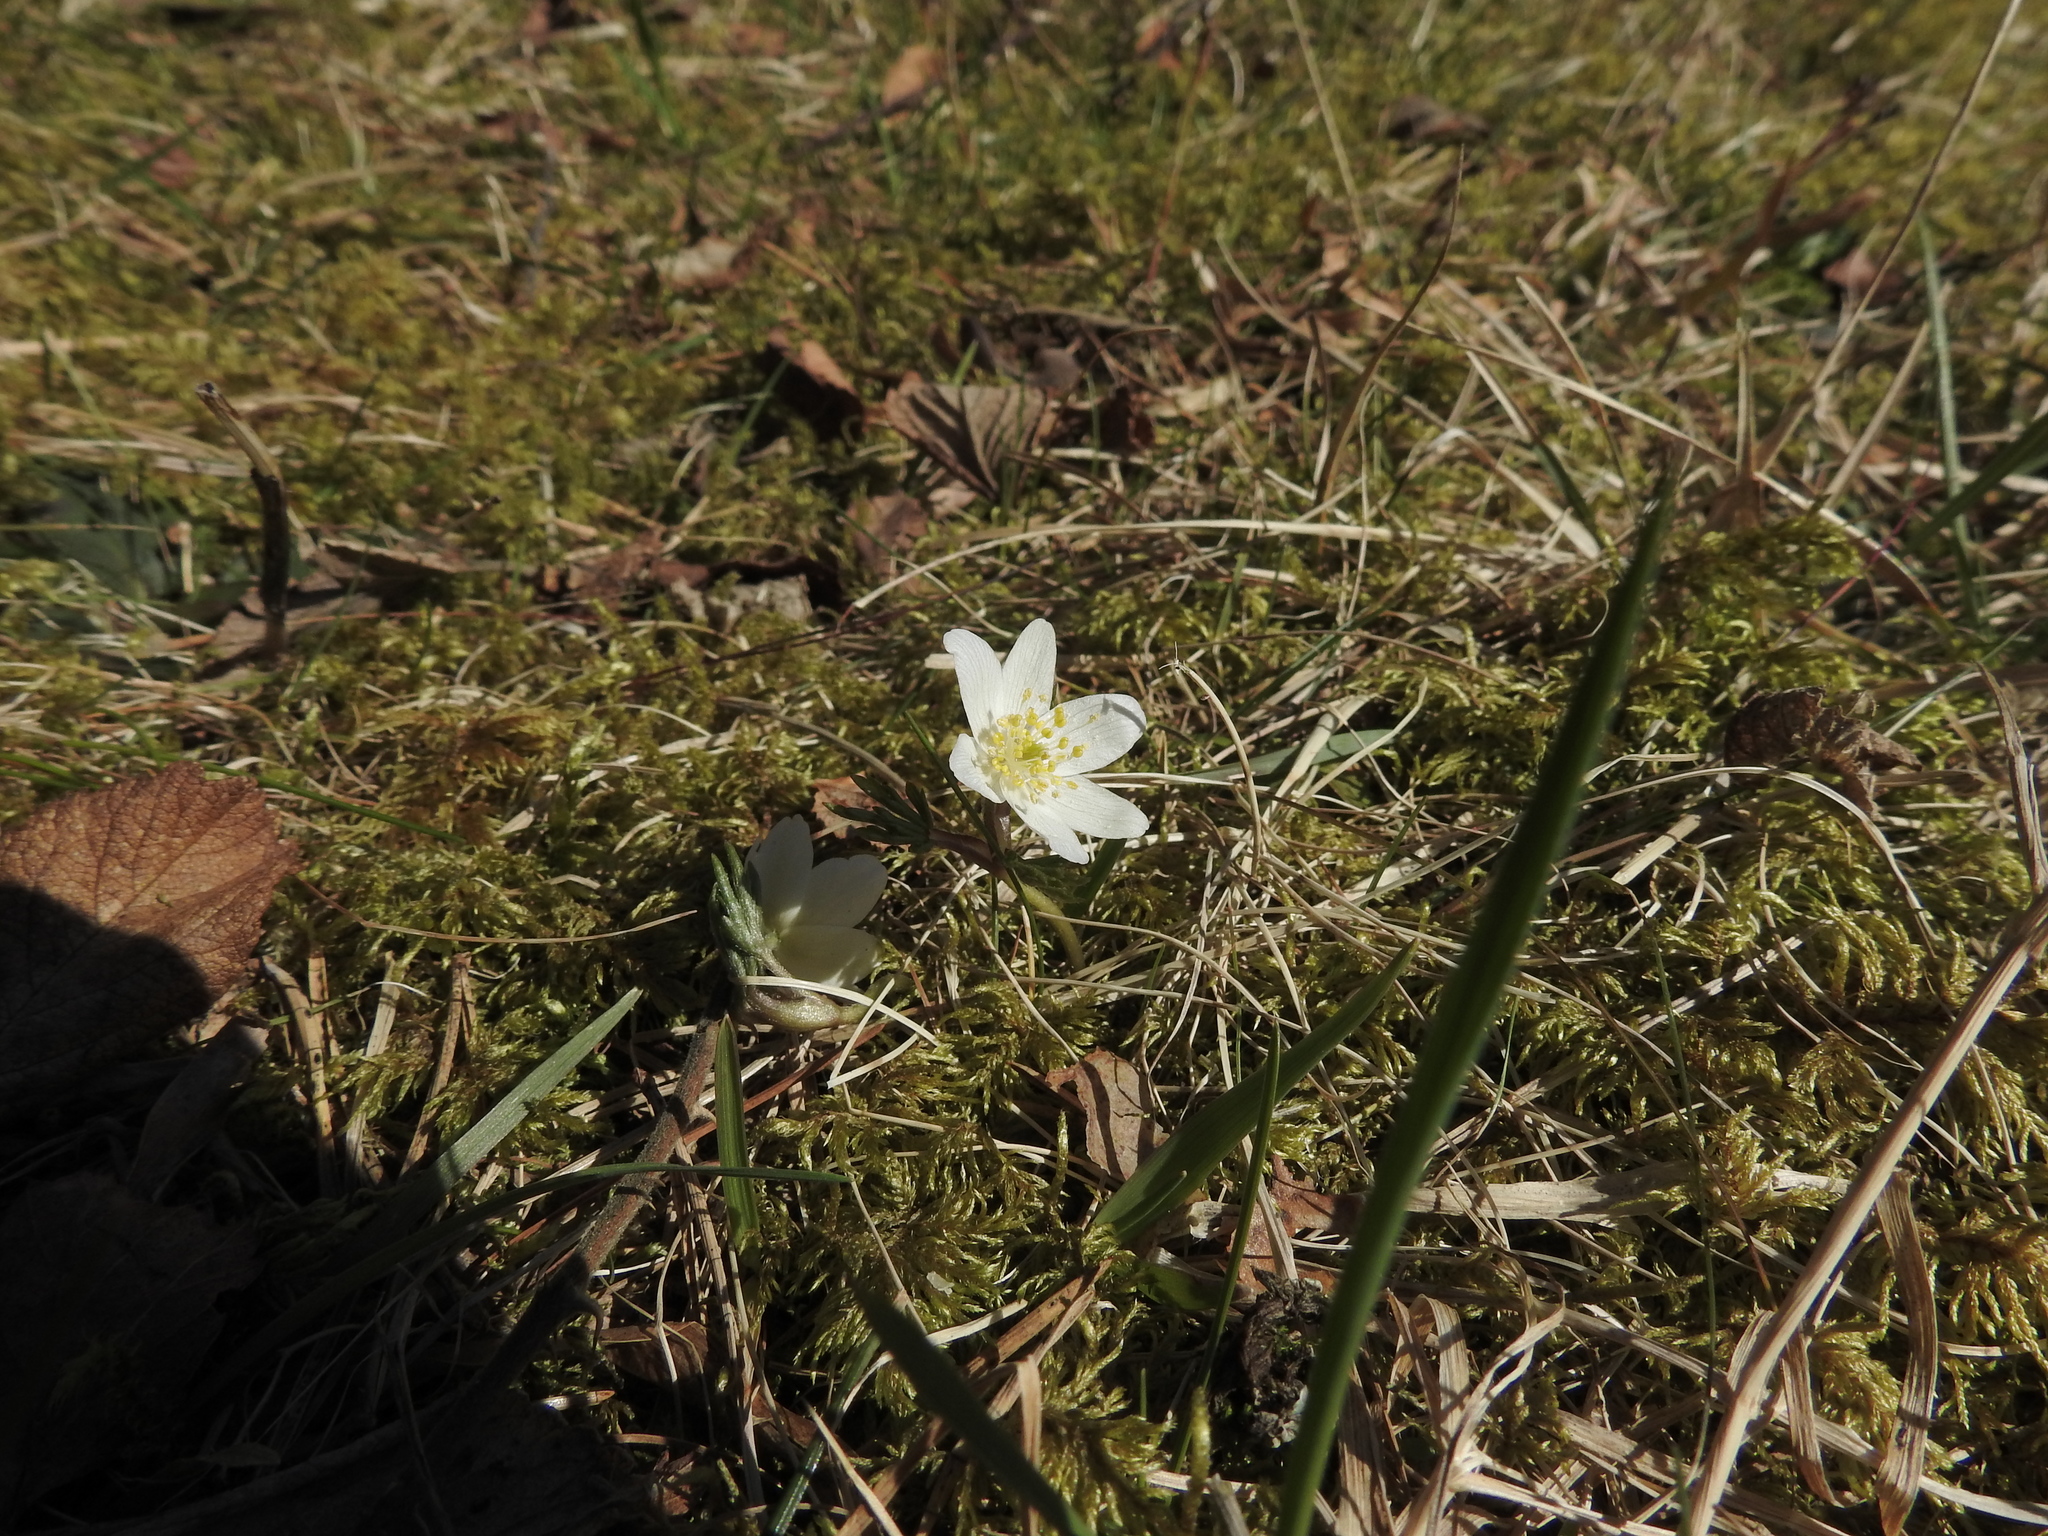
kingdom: Plantae
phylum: Tracheophyta
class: Magnoliopsida
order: Ranunculales
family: Ranunculaceae
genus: Anemone
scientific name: Anemone nemorosa
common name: Wood anemone
